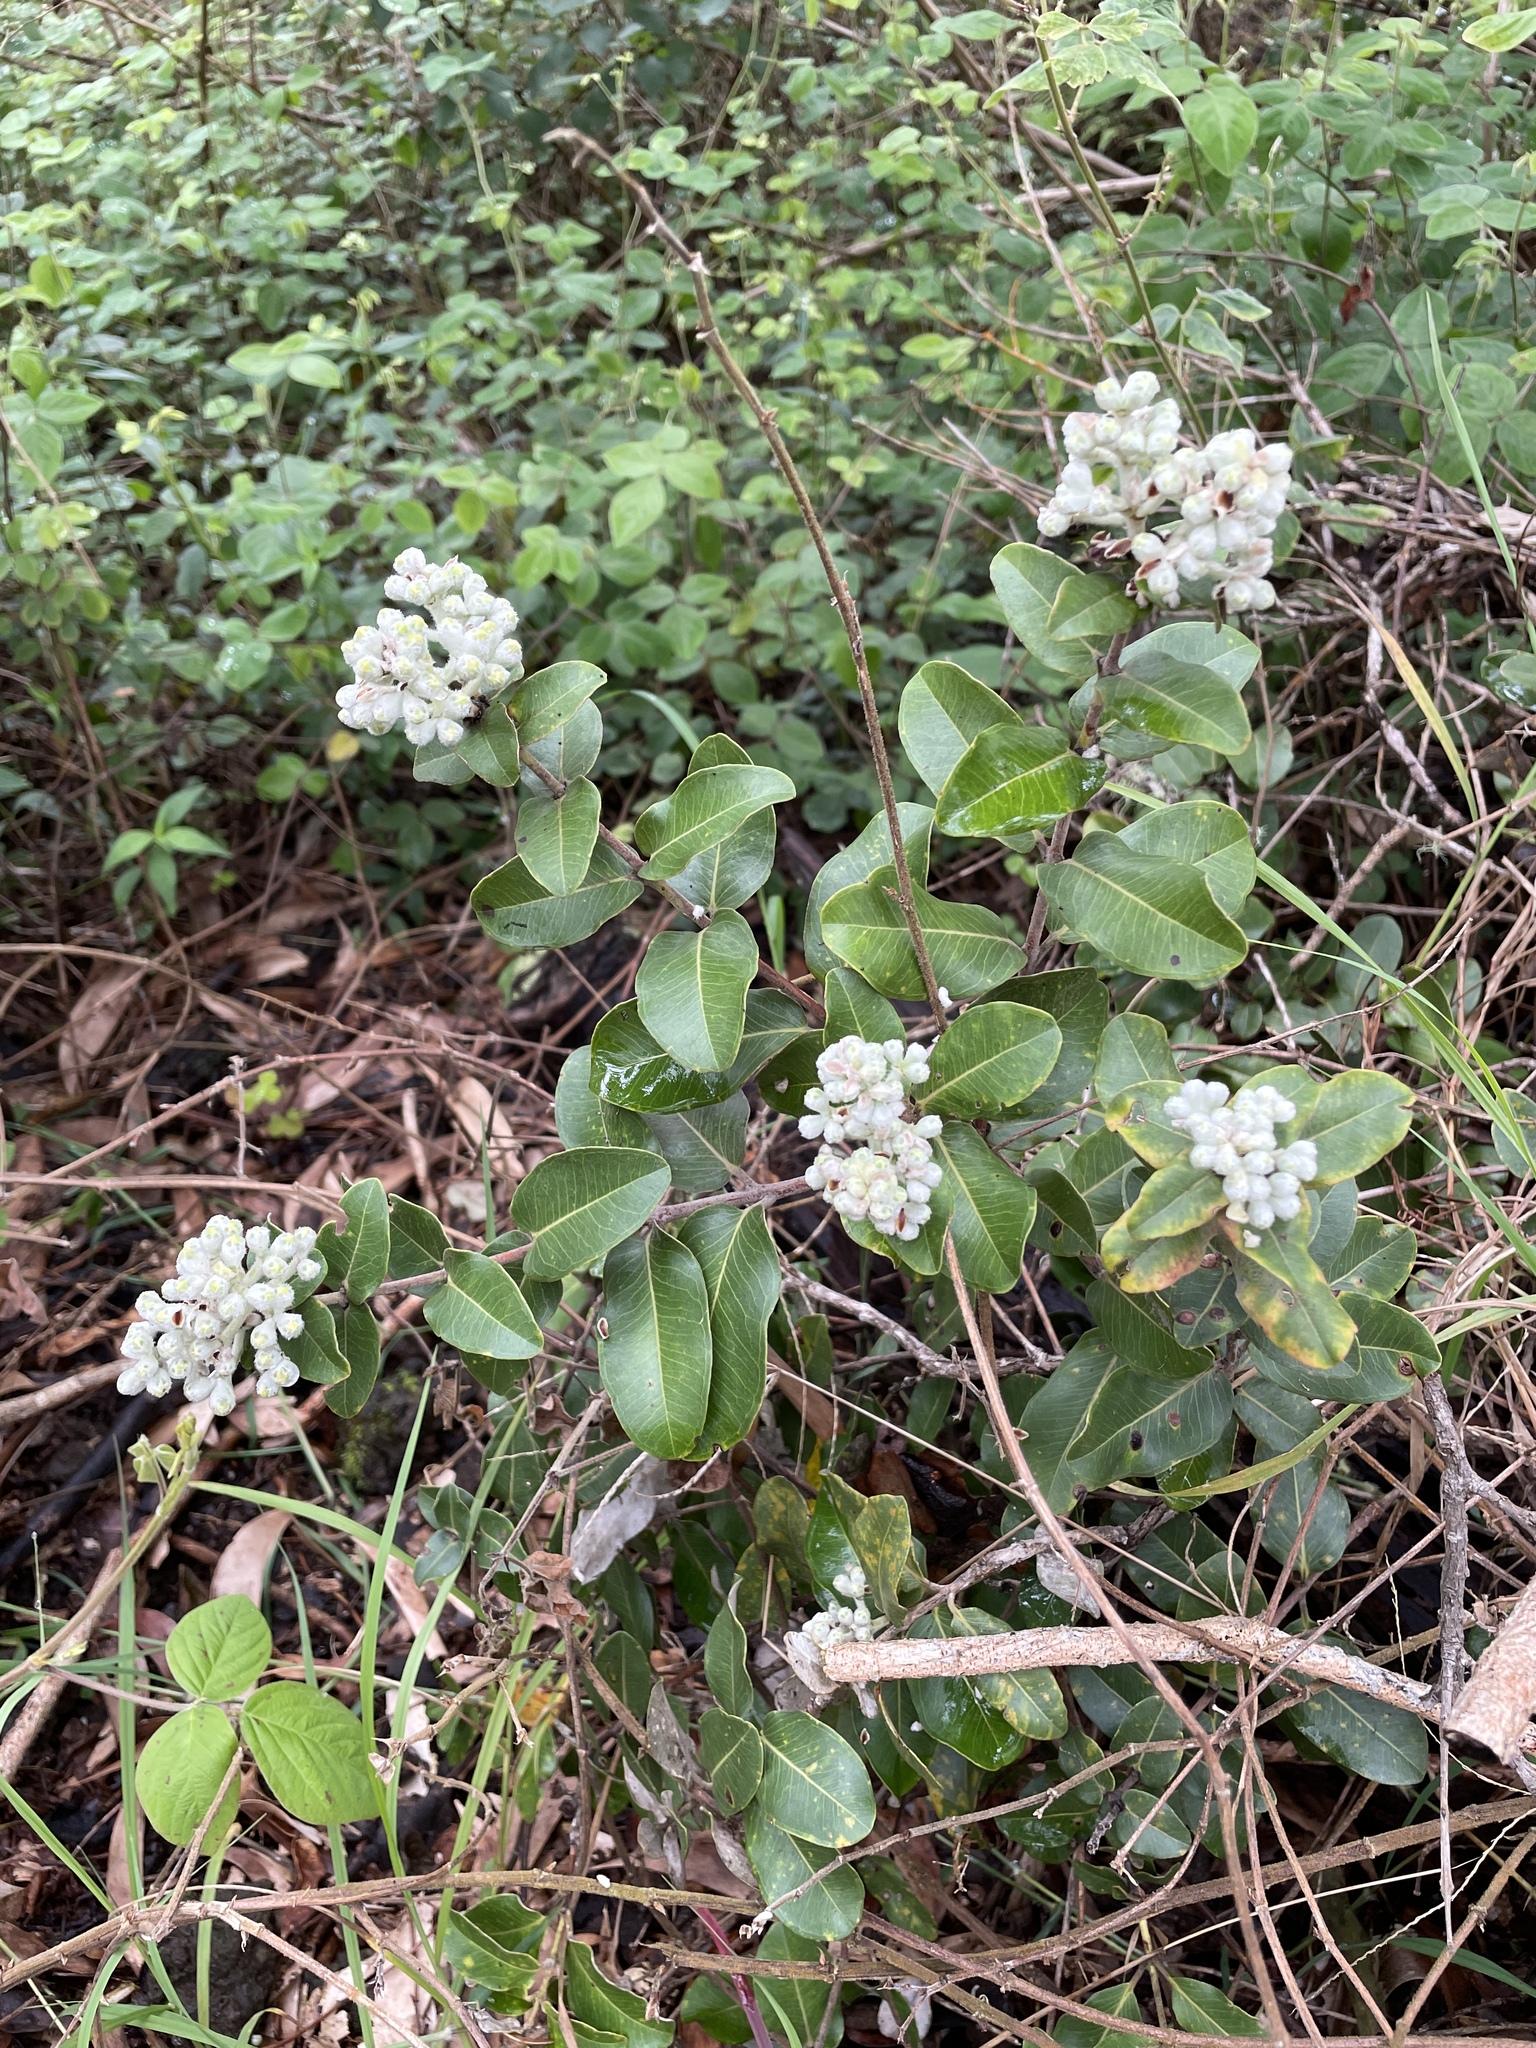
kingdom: Plantae
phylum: Tracheophyta
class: Magnoliopsida
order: Myrtales
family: Myrtaceae
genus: Metrosideros
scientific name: Metrosideros polymorpha
